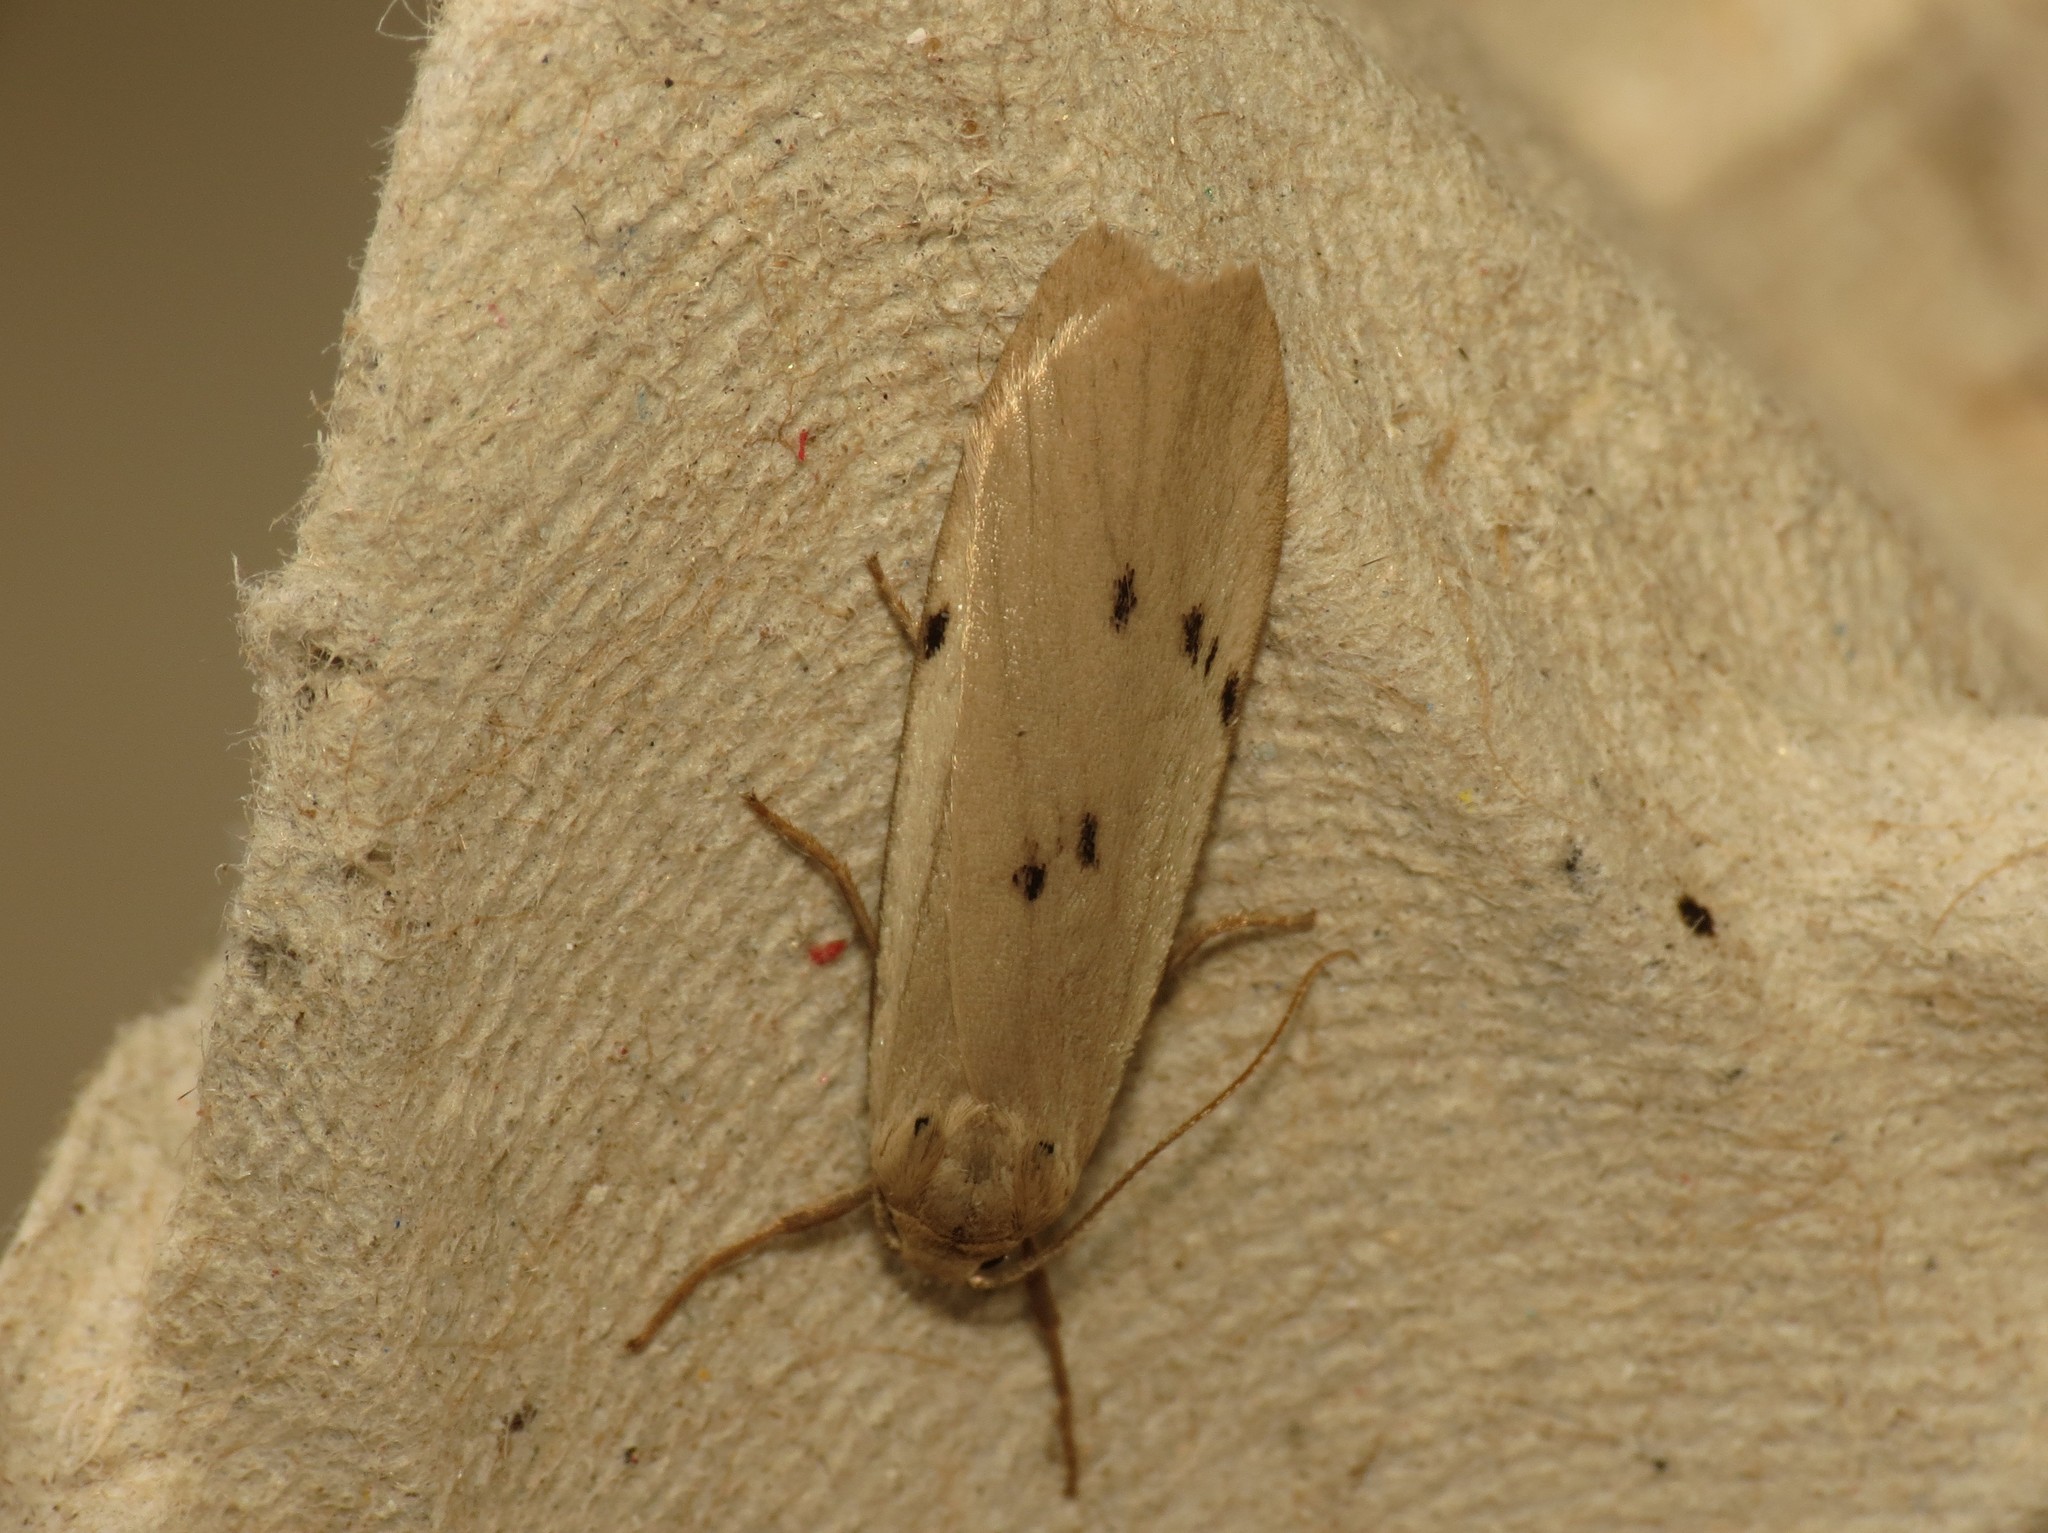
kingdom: Animalia
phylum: Arthropoda
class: Insecta
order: Lepidoptera
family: Erebidae
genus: Pelosia
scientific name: Pelosia muscerda
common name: Dotted footman
